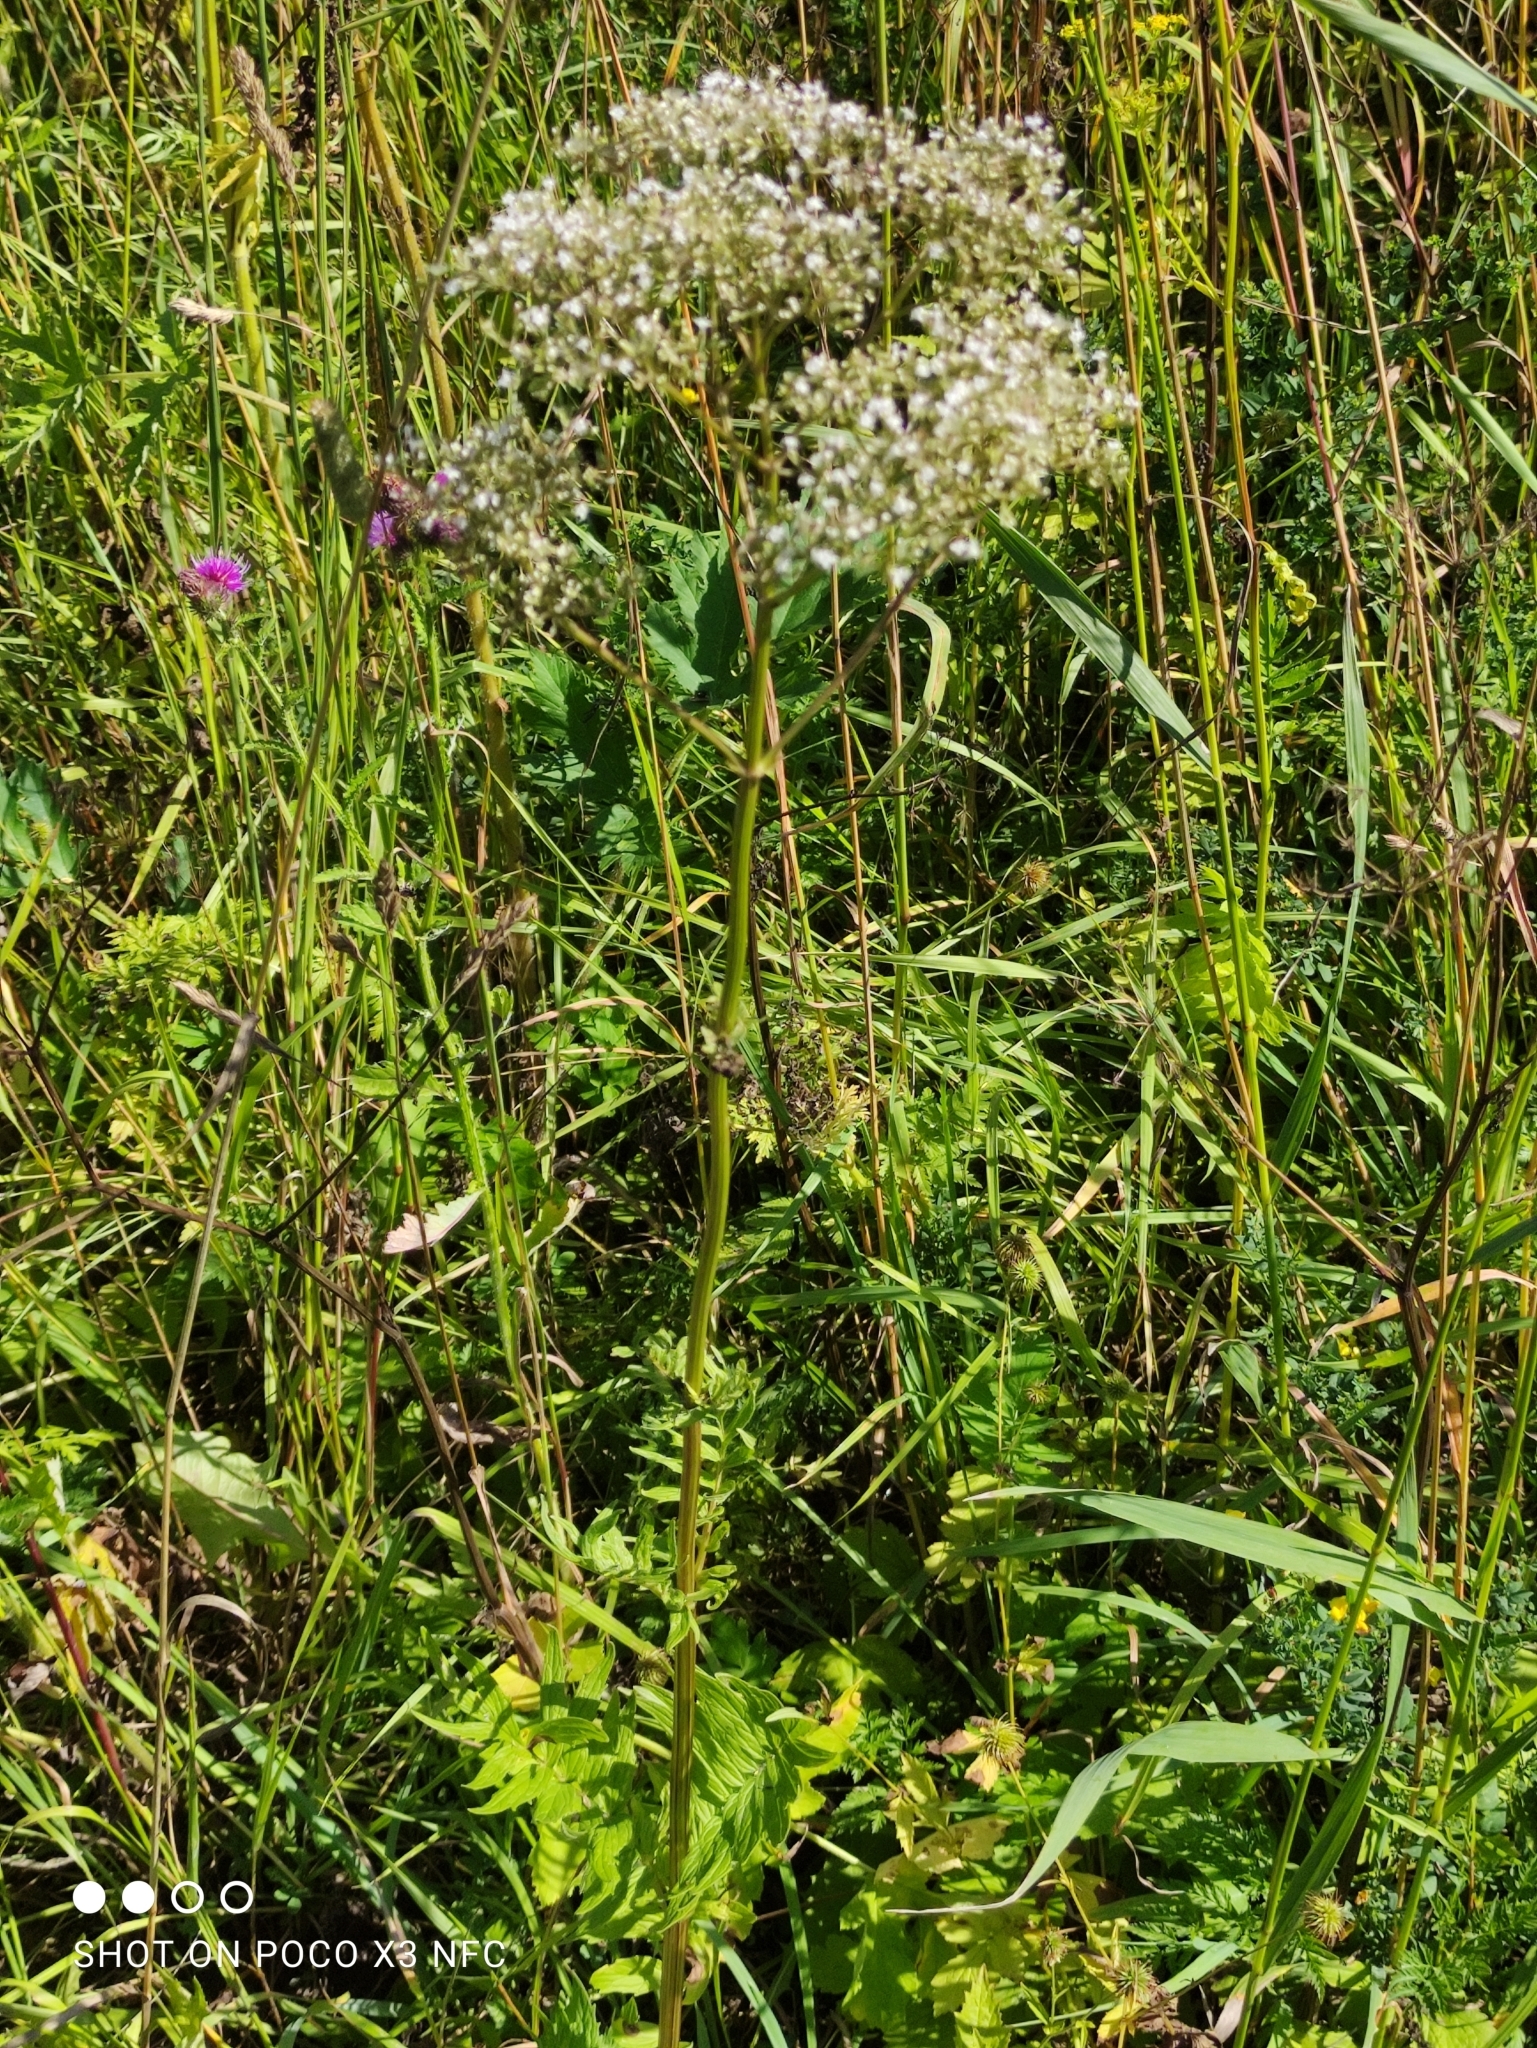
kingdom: Plantae
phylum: Tracheophyta
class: Magnoliopsida
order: Dipsacales
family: Caprifoliaceae
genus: Valeriana
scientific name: Valeriana officinalis
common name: Common valerian
